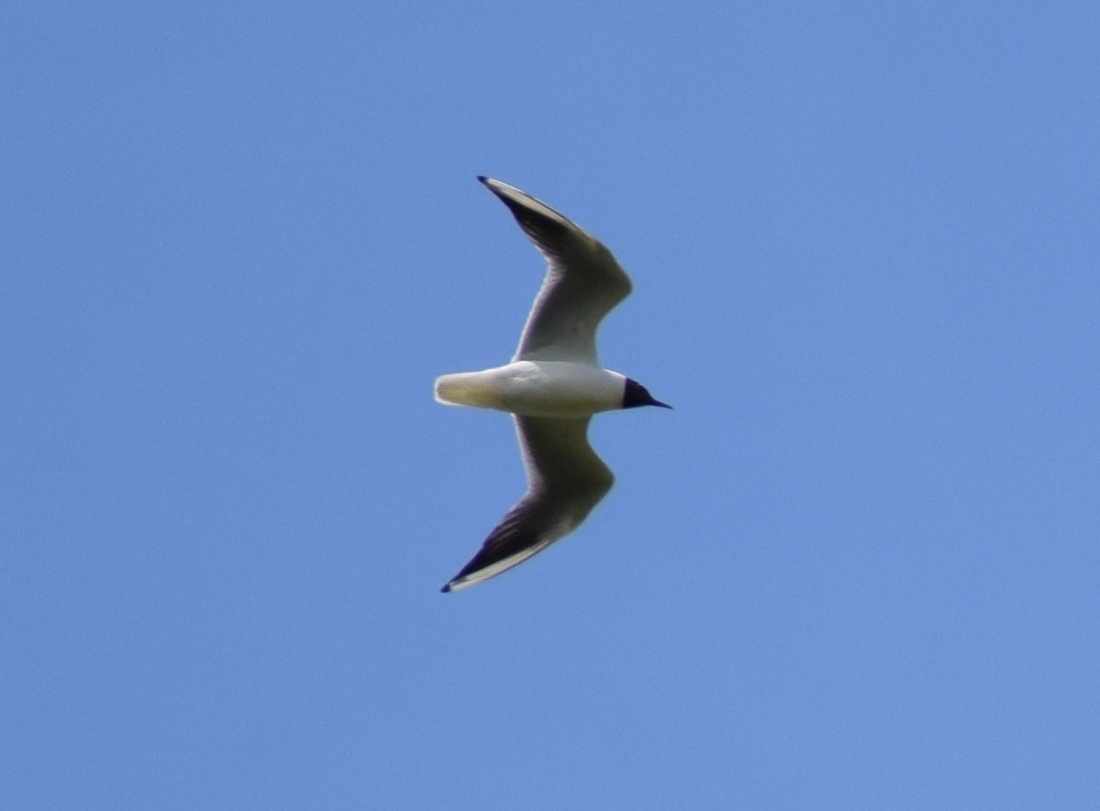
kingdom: Animalia
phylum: Chordata
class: Aves
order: Charadriiformes
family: Laridae
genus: Chroicocephalus
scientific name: Chroicocephalus ridibundus
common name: Black-headed gull
